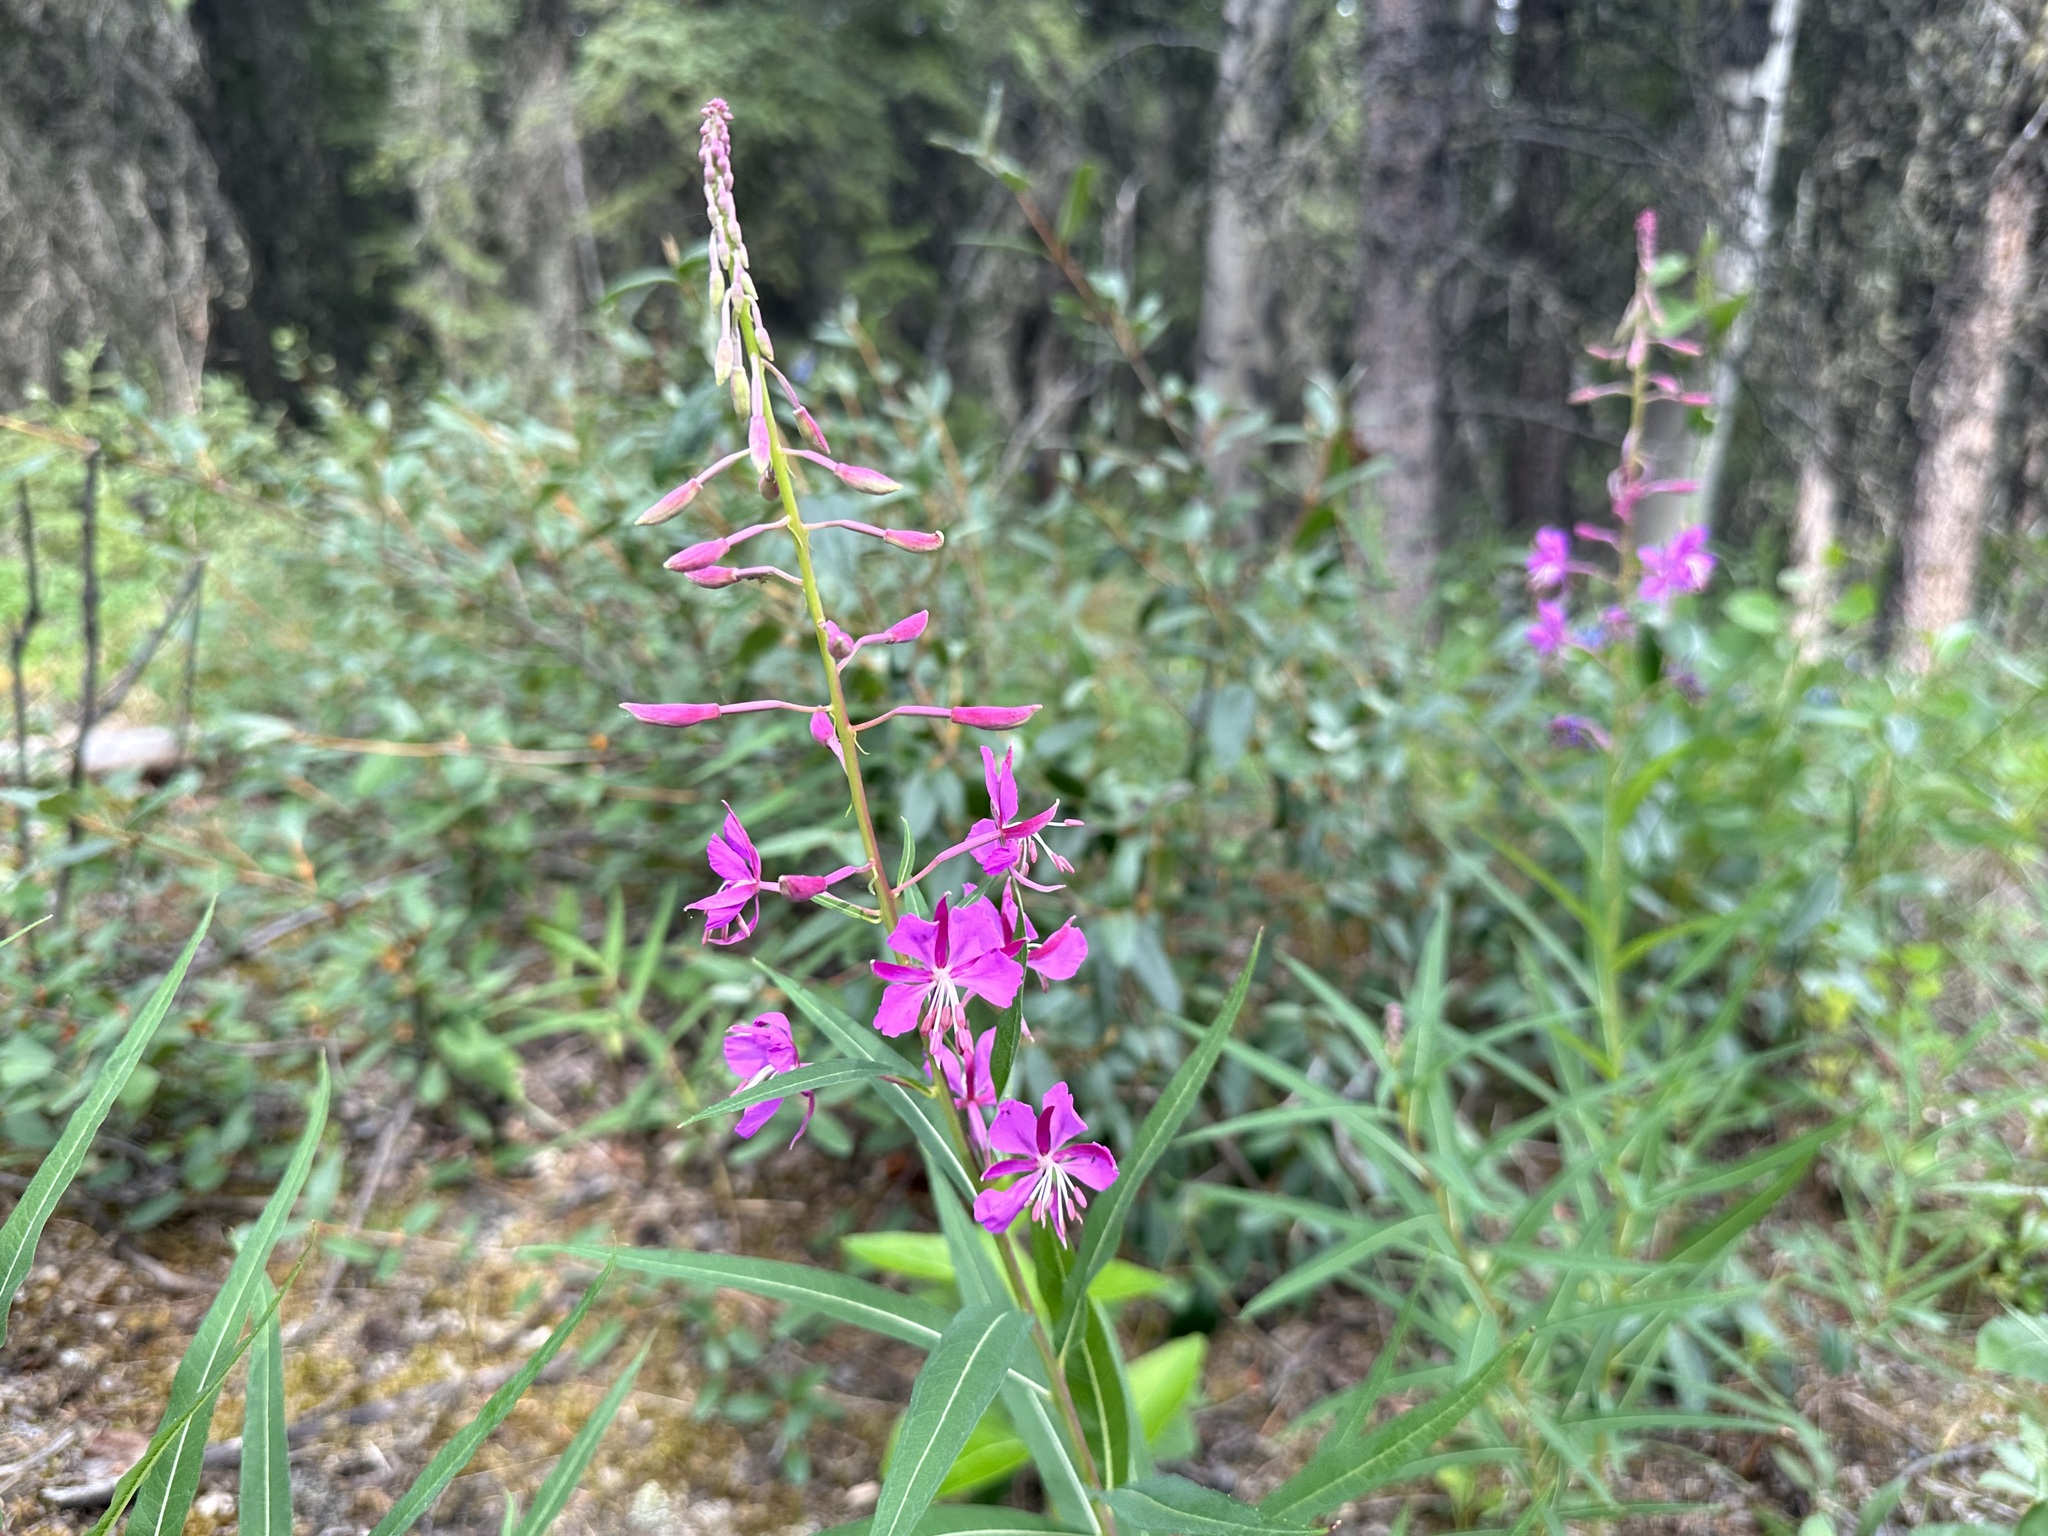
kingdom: Plantae
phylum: Tracheophyta
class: Magnoliopsida
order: Myrtales
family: Onagraceae
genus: Chamaenerion
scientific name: Chamaenerion angustifolium
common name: Fireweed
